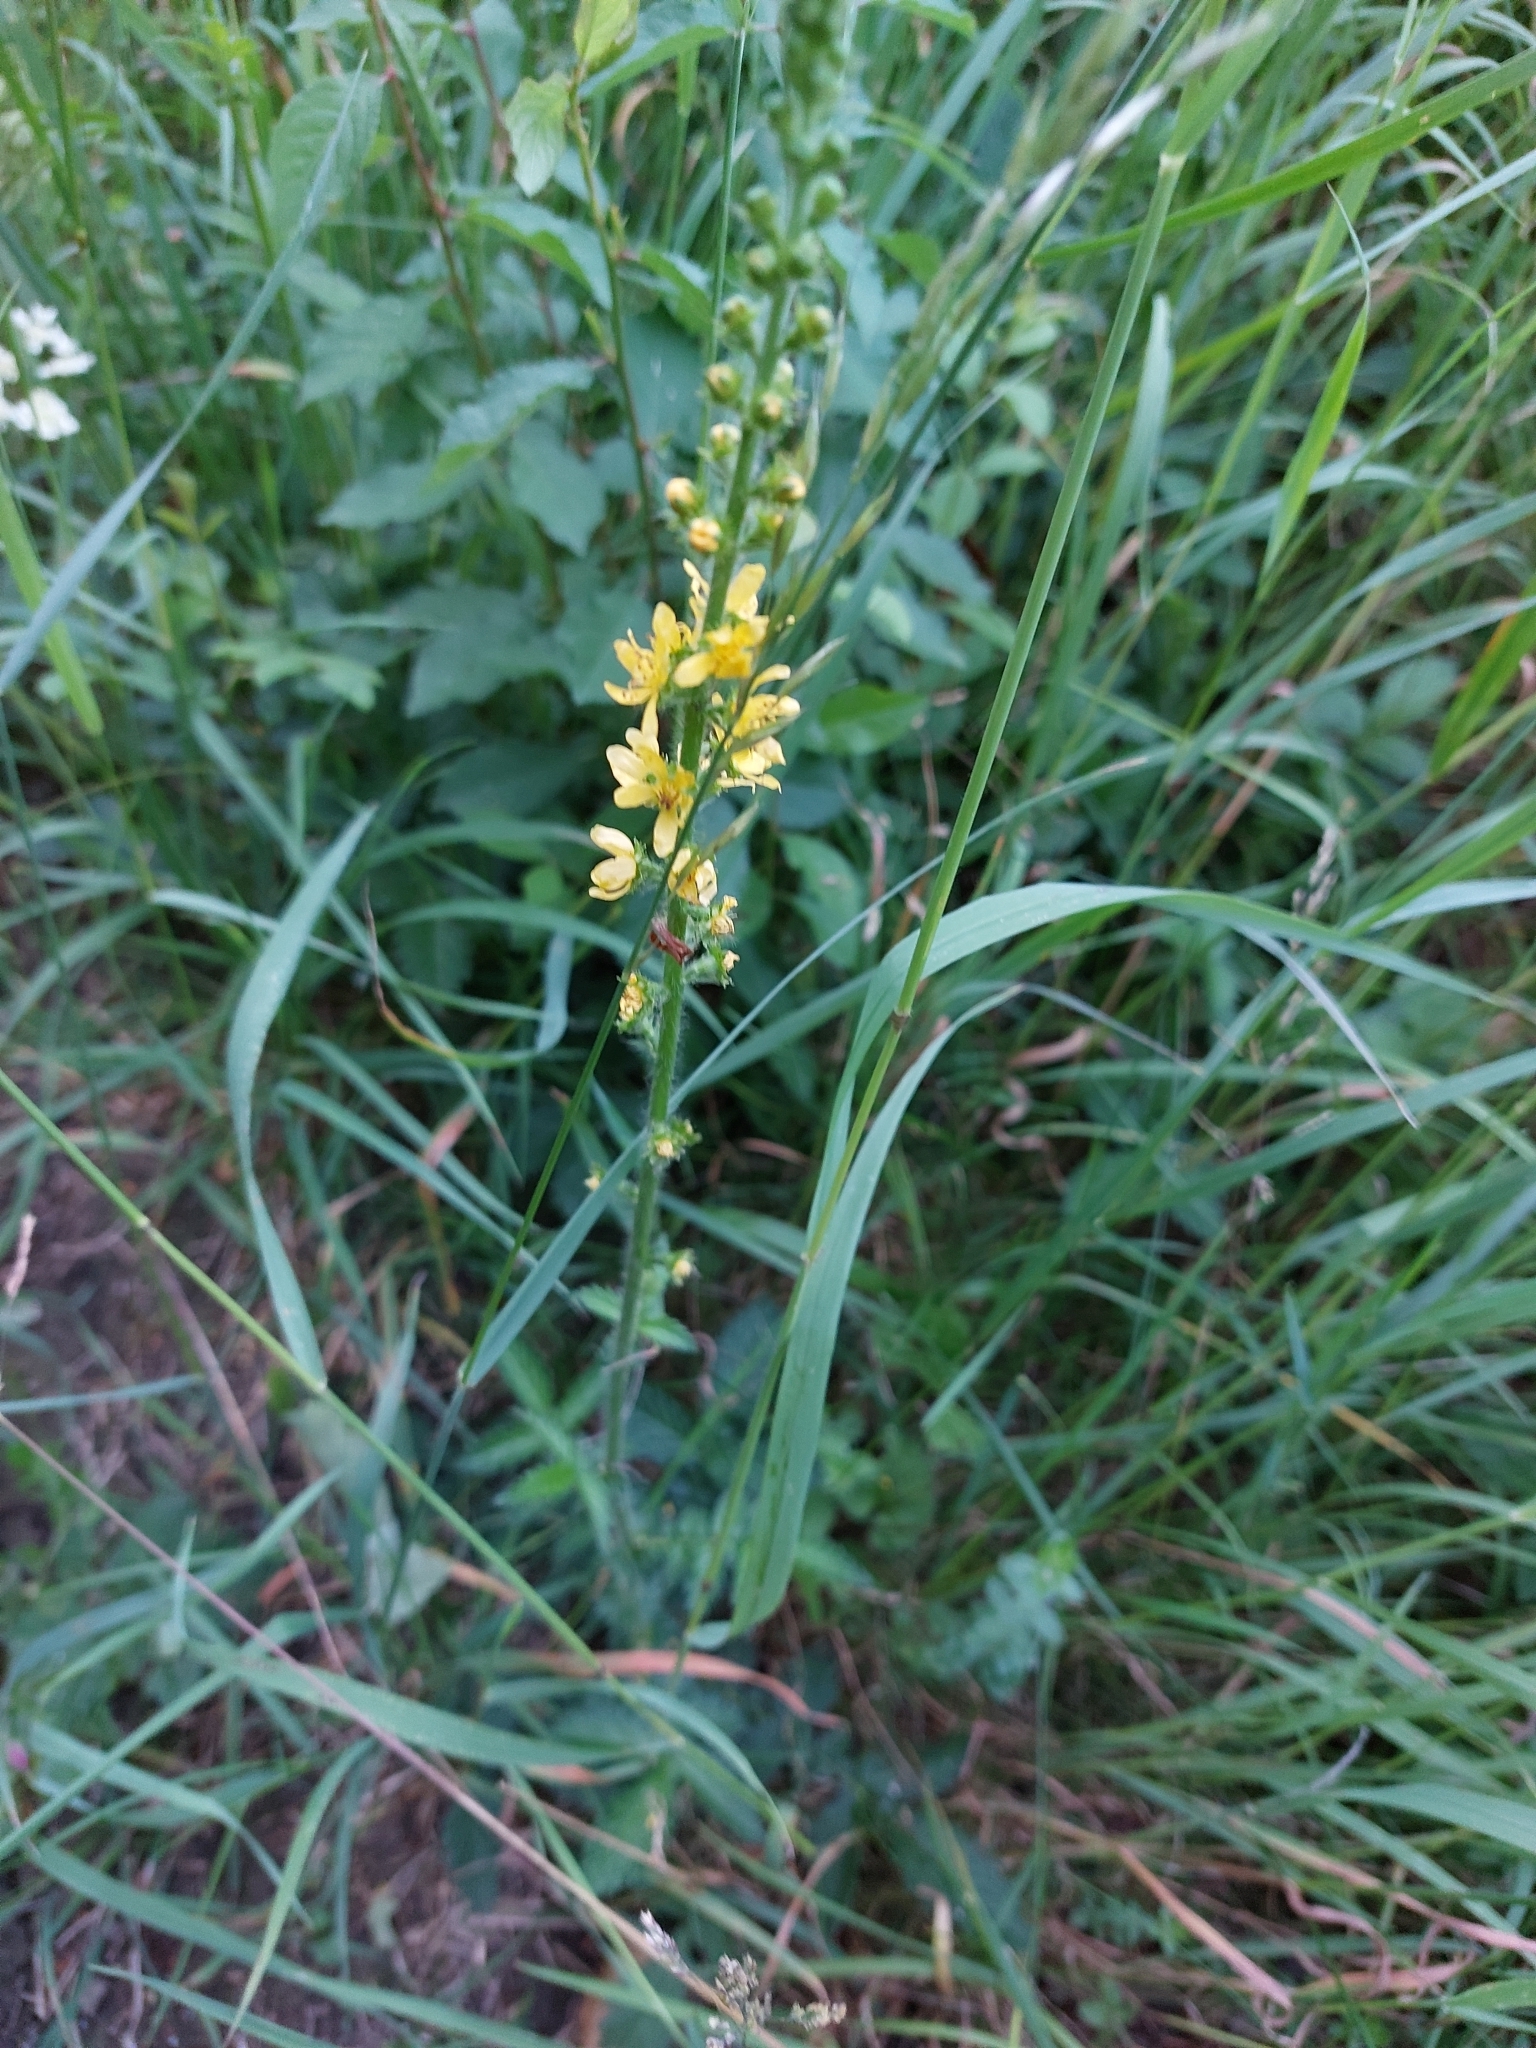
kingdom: Plantae
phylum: Tracheophyta
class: Magnoliopsida
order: Rosales
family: Rosaceae
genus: Agrimonia
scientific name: Agrimonia eupatoria
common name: Agrimony
